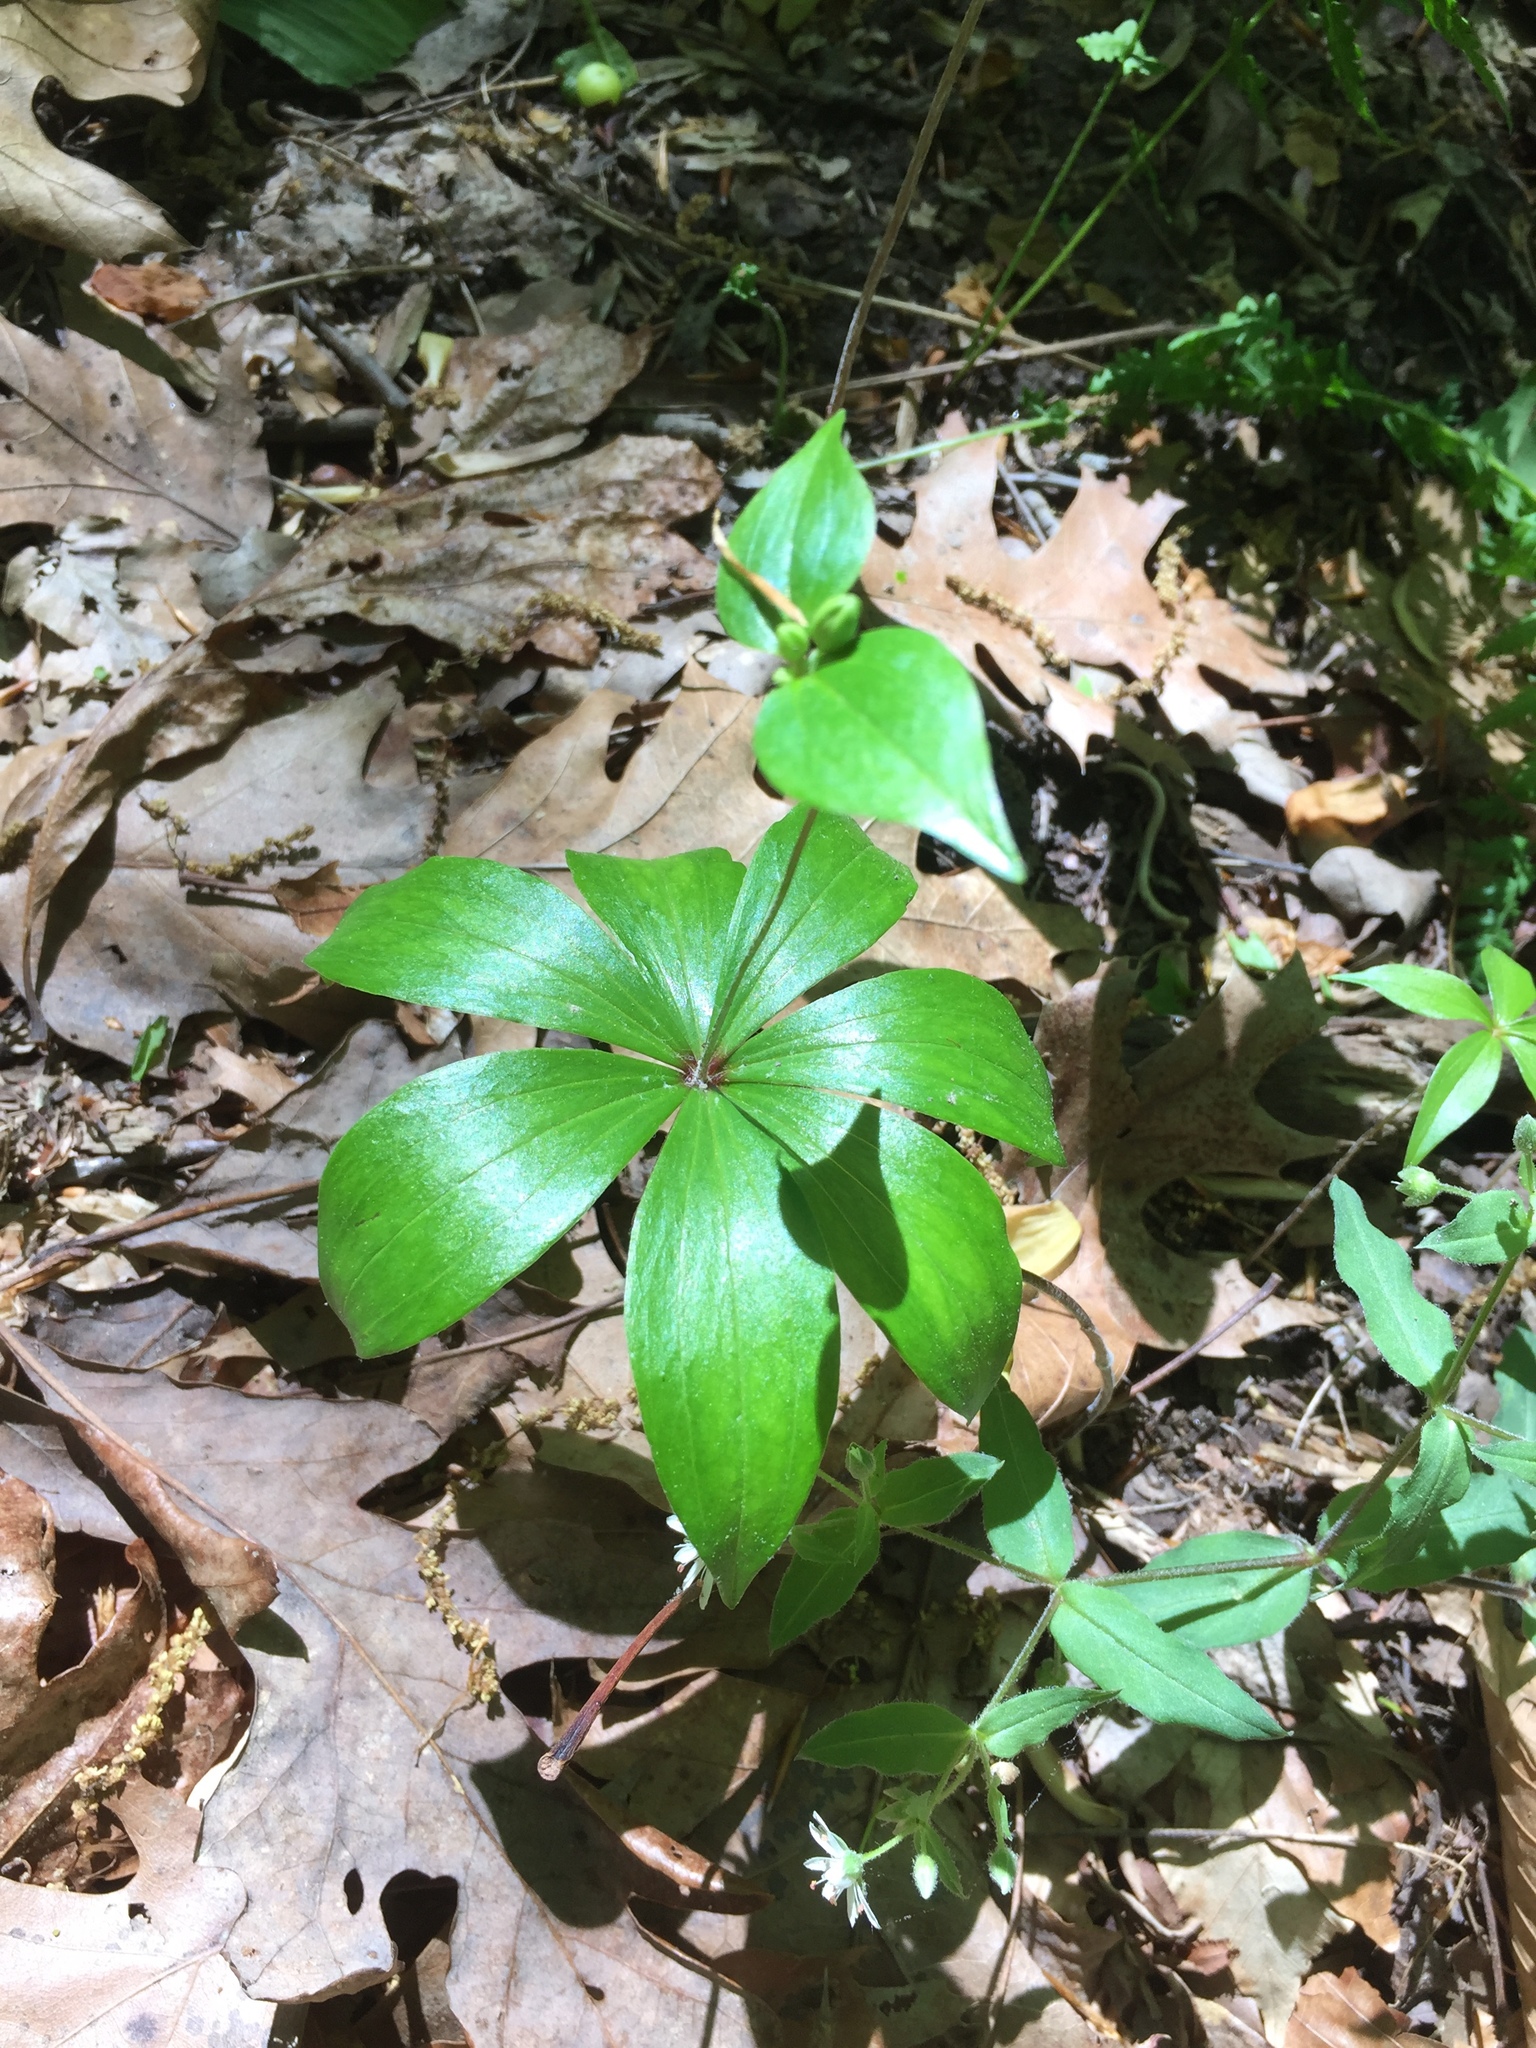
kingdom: Plantae
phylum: Tracheophyta
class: Liliopsida
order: Liliales
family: Liliaceae
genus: Medeola
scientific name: Medeola virginiana
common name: Indian cucumber-root
